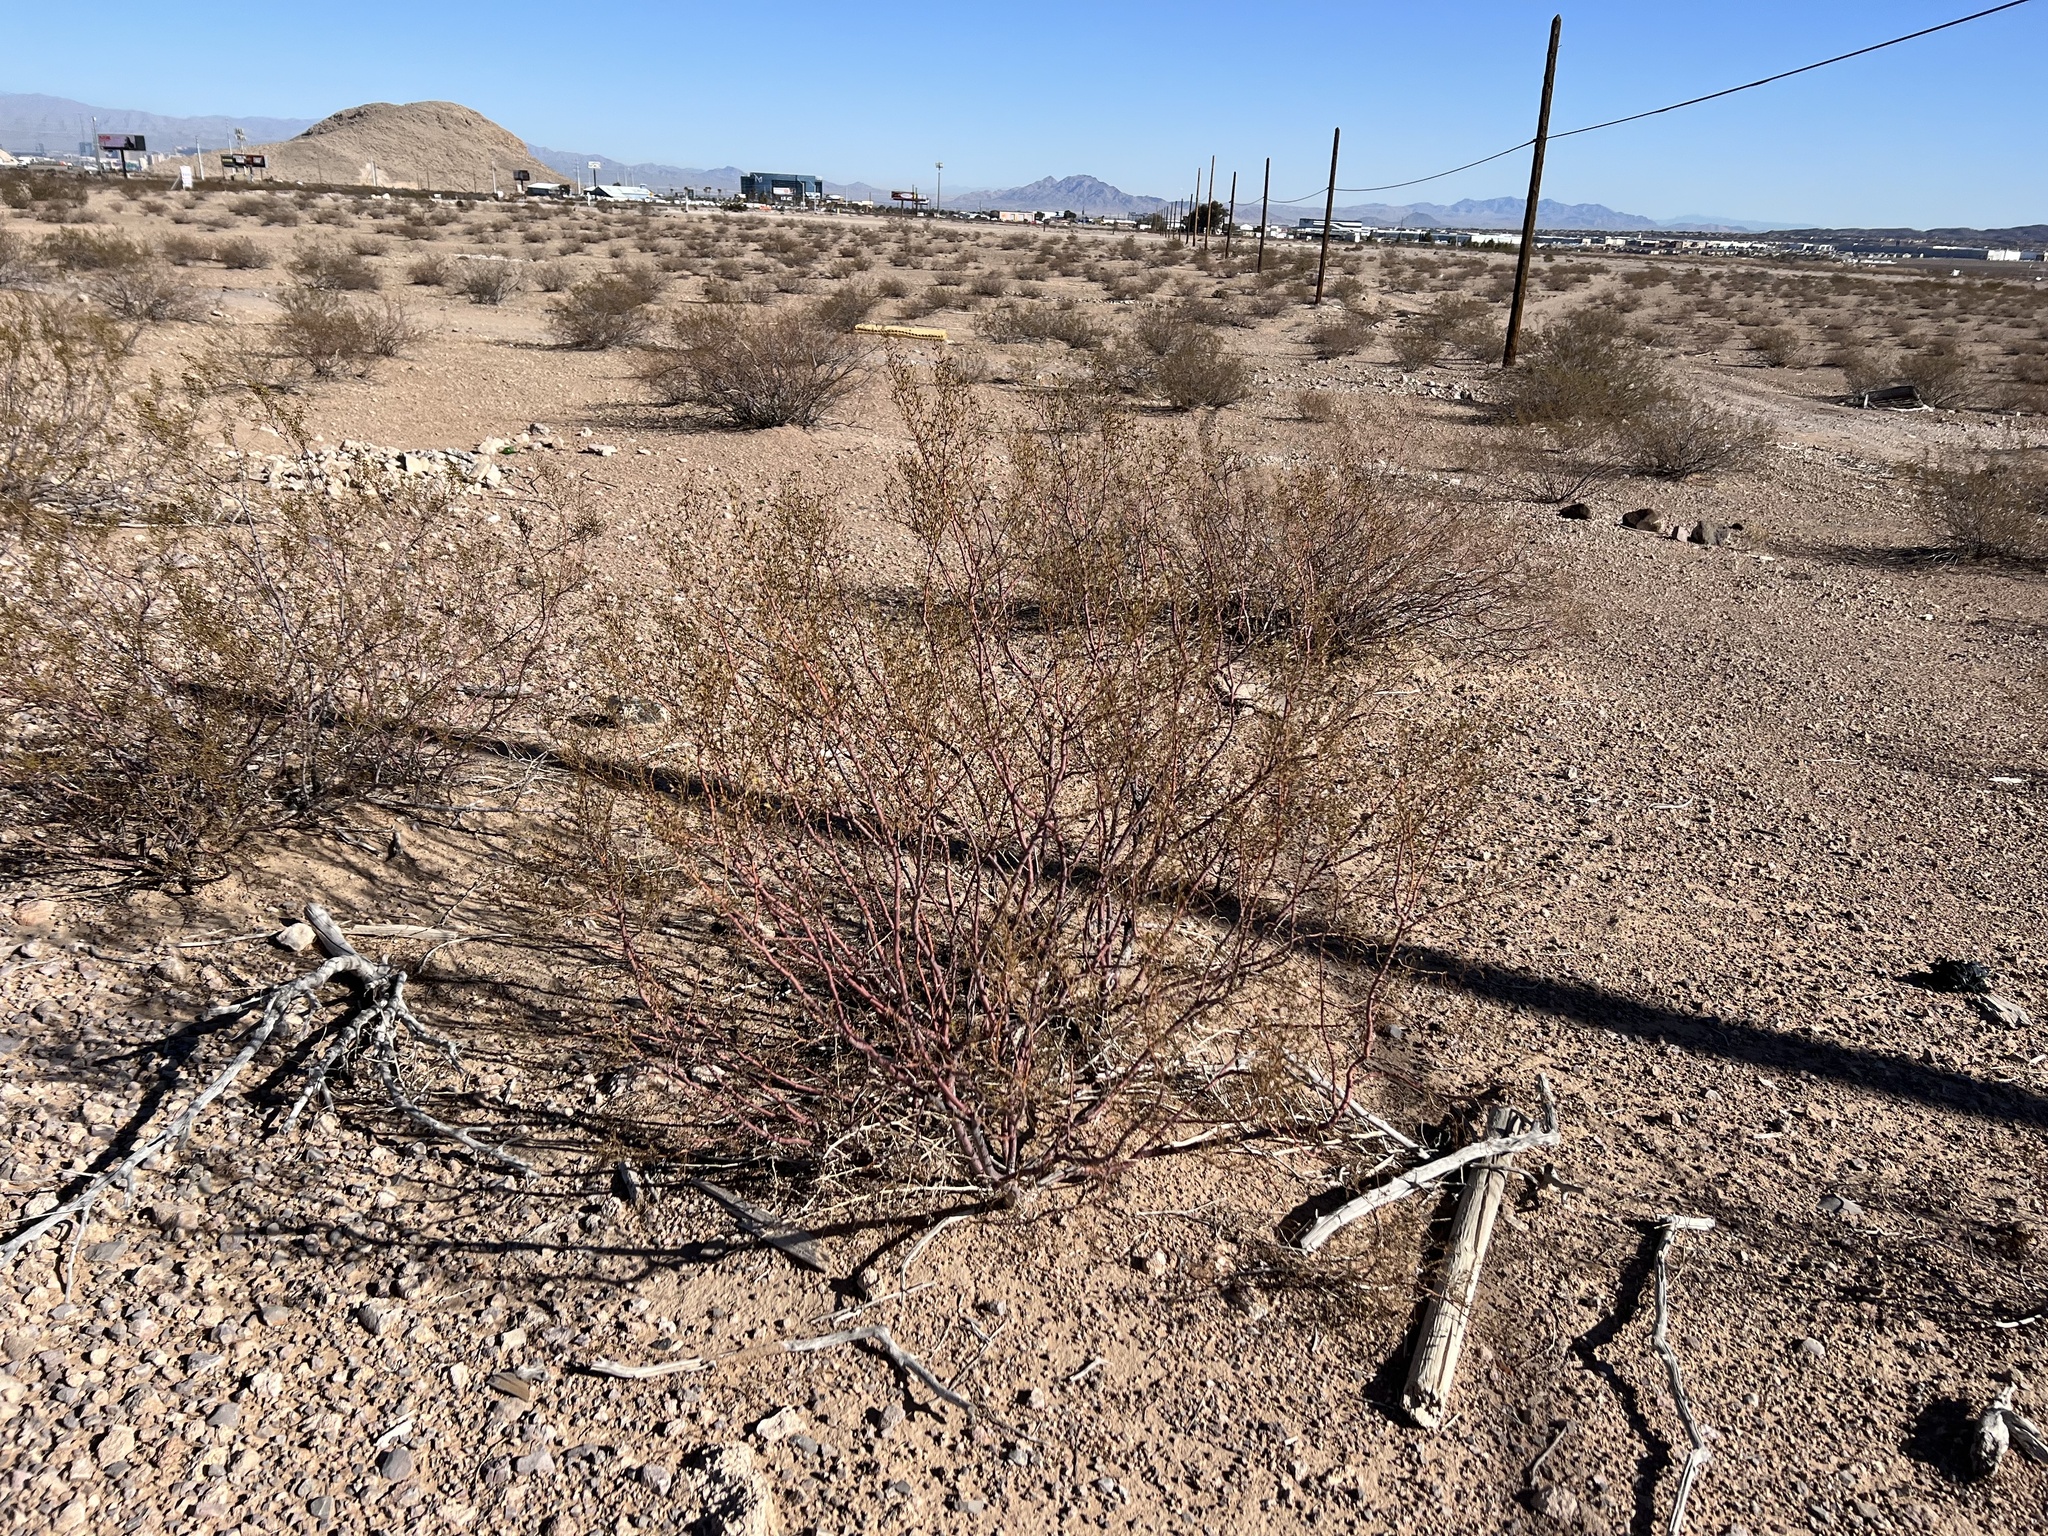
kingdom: Plantae
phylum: Tracheophyta
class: Magnoliopsida
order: Zygophyllales
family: Zygophyllaceae
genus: Larrea
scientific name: Larrea tridentata
